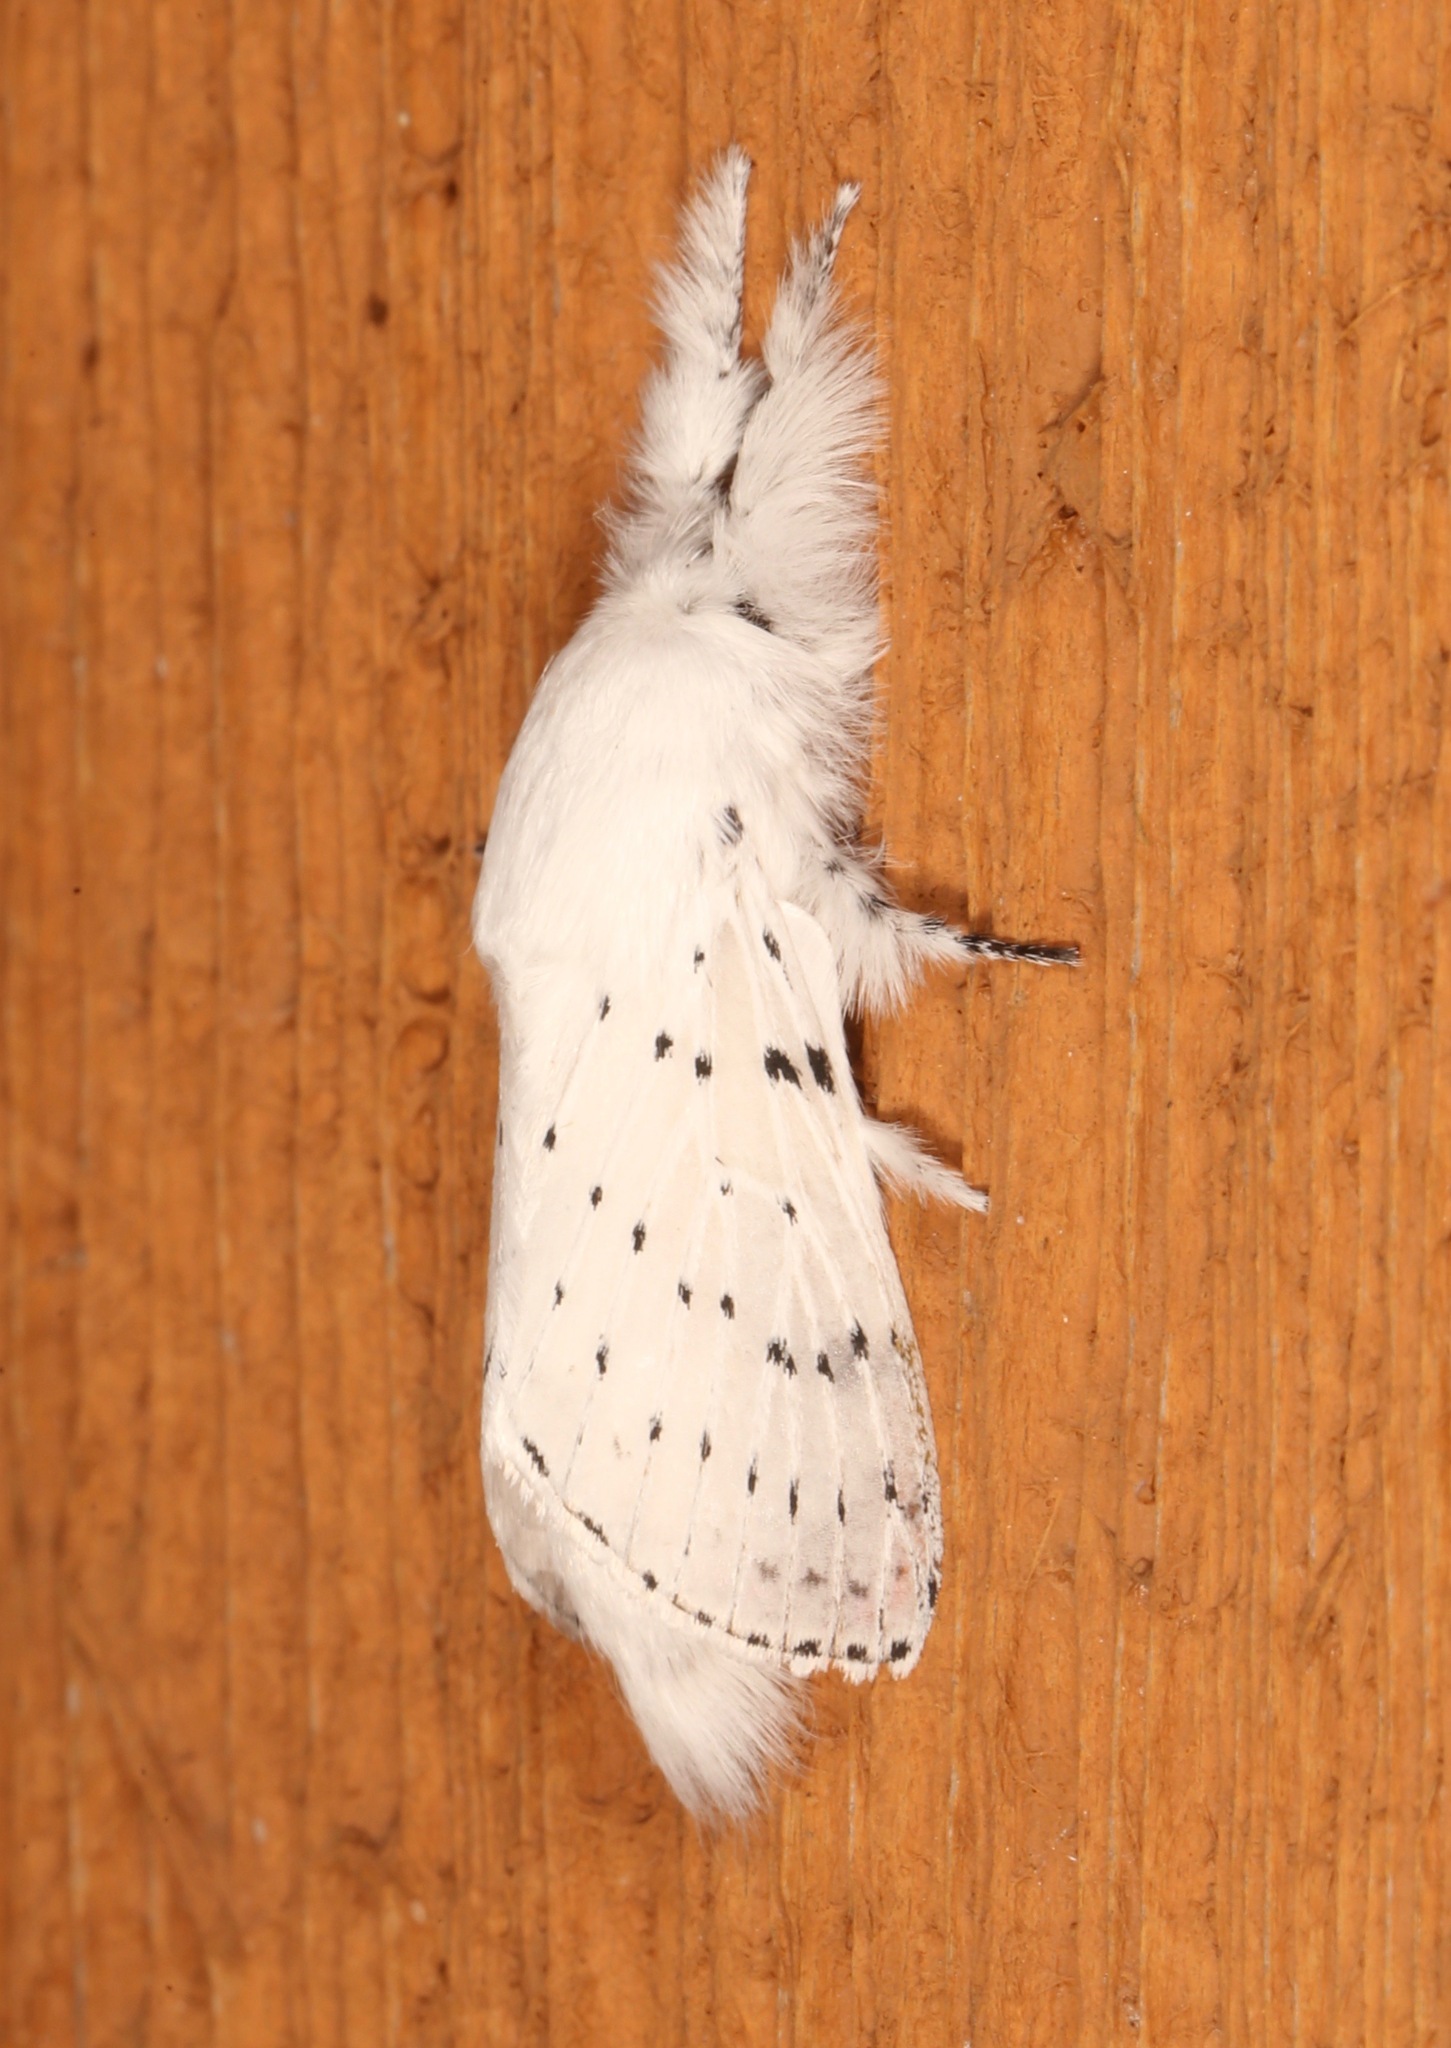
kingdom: Animalia
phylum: Arthropoda
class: Insecta
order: Lepidoptera
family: Lasiocampidae
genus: Artace
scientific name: Artace cribrarius
